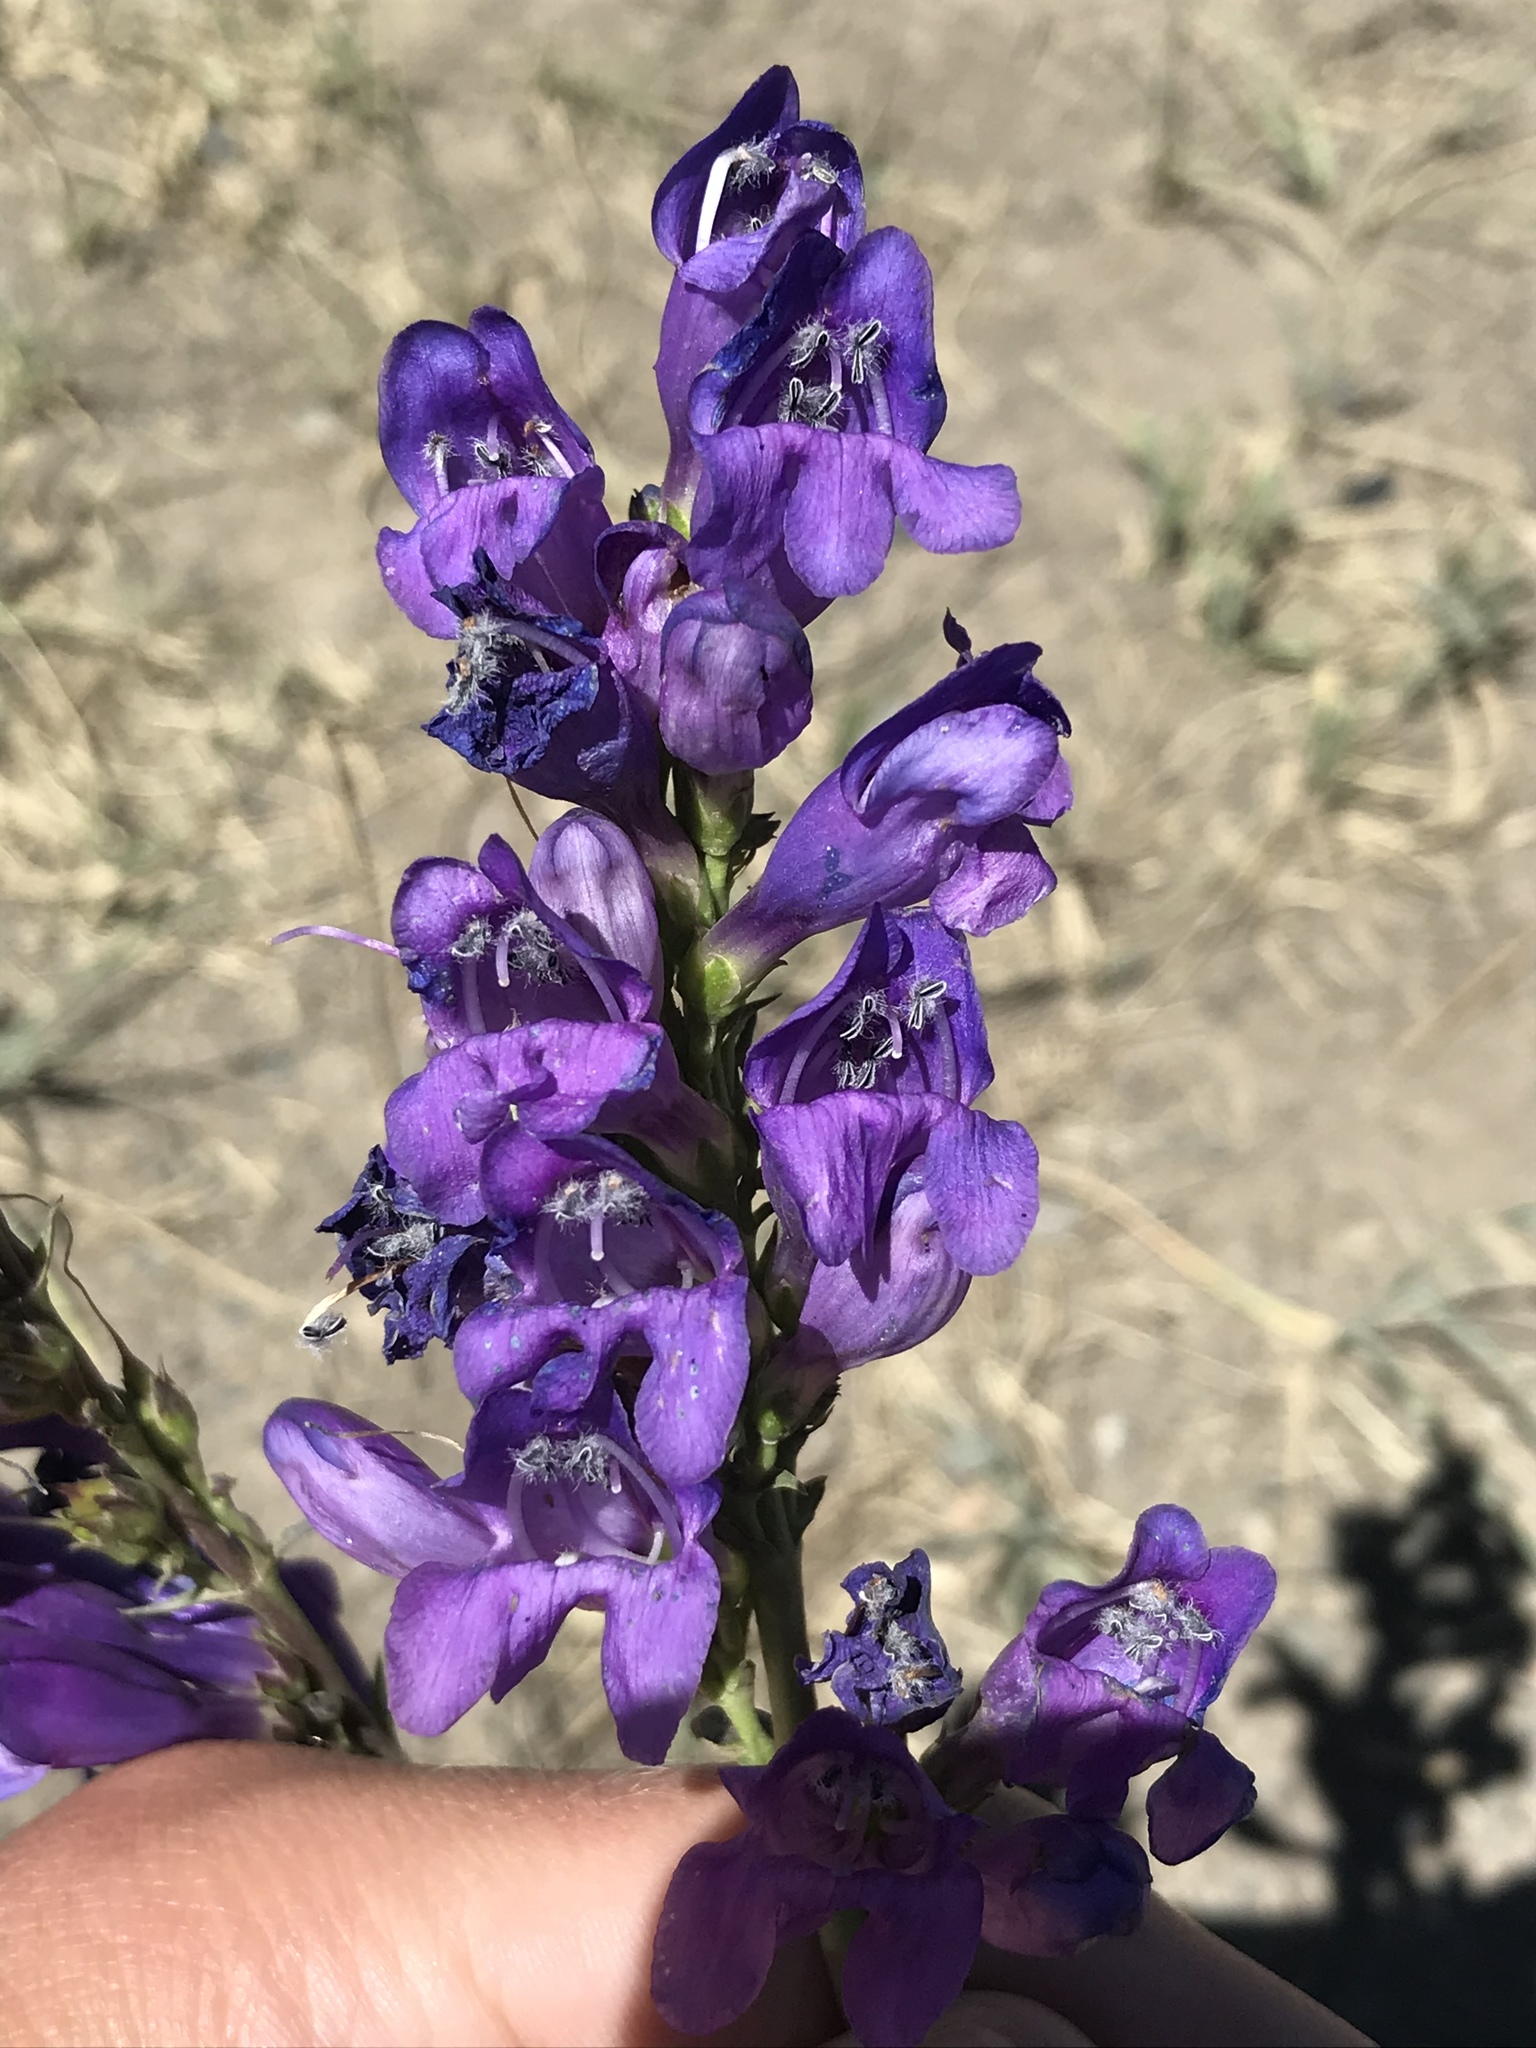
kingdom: Plantae
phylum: Tracheophyta
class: Magnoliopsida
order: Lamiales
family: Plantaginaceae
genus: Penstemon
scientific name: Penstemon strictus
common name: Rocky mountain penstemon
